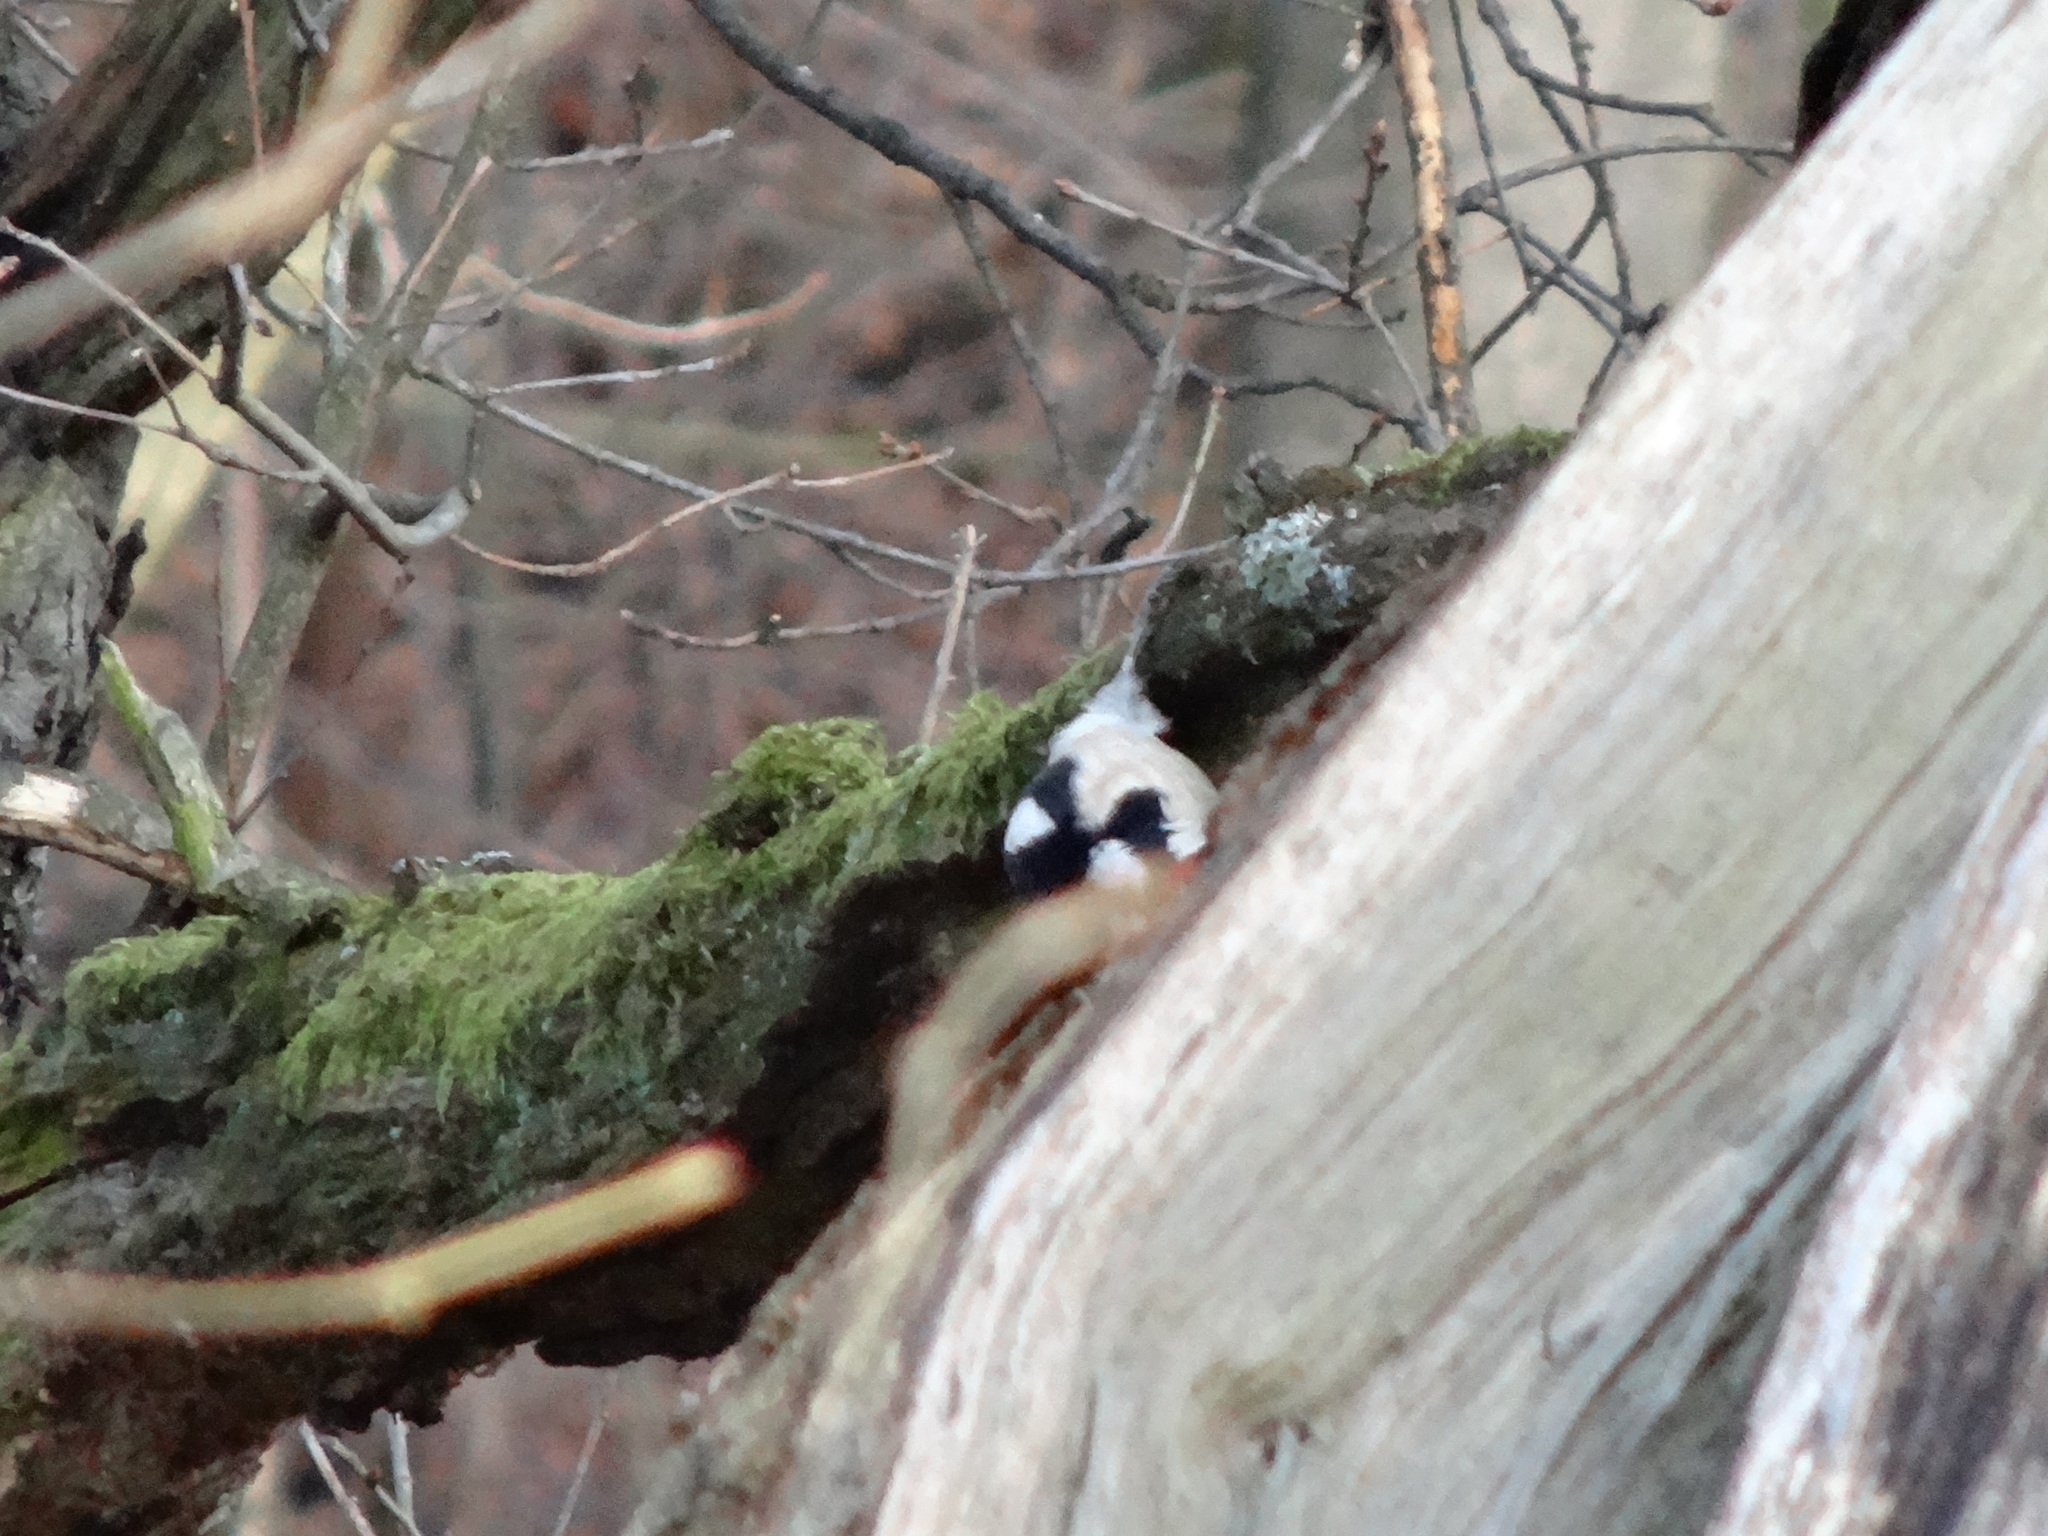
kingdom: Animalia
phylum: Chordata
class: Aves
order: Piciformes
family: Picidae
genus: Dendrocopos
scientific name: Dendrocopos major
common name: Great spotted woodpecker
